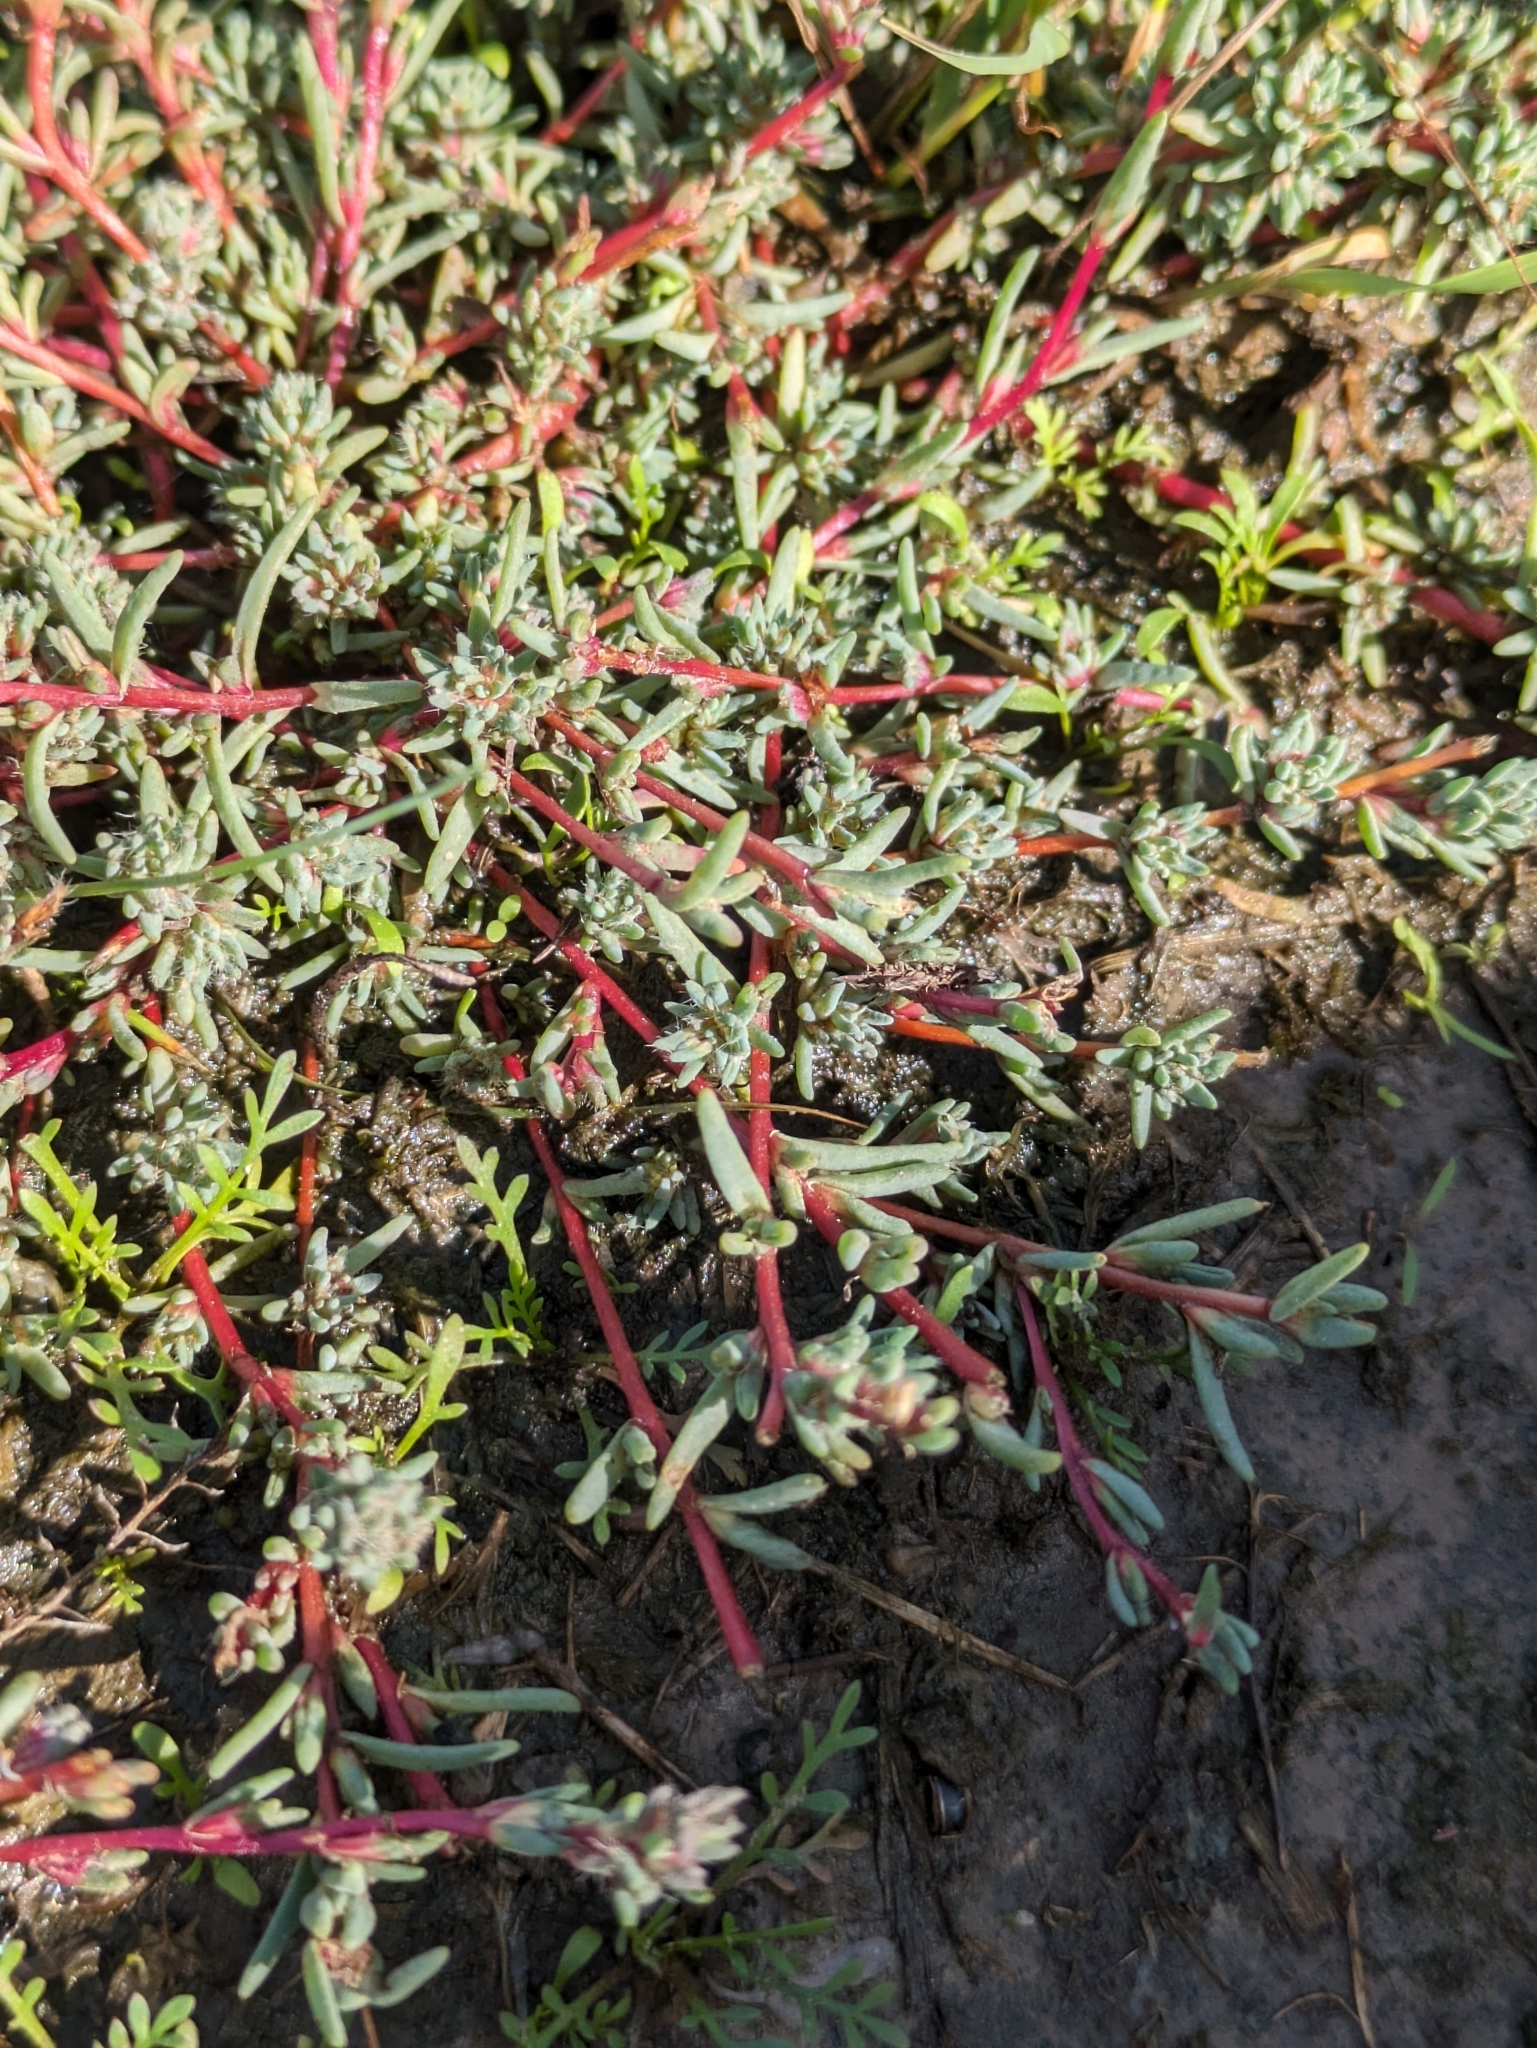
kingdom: Plantae
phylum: Tracheophyta
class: Magnoliopsida
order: Caryophyllales
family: Amaranthaceae
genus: Camphorosma
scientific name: Camphorosma annua
